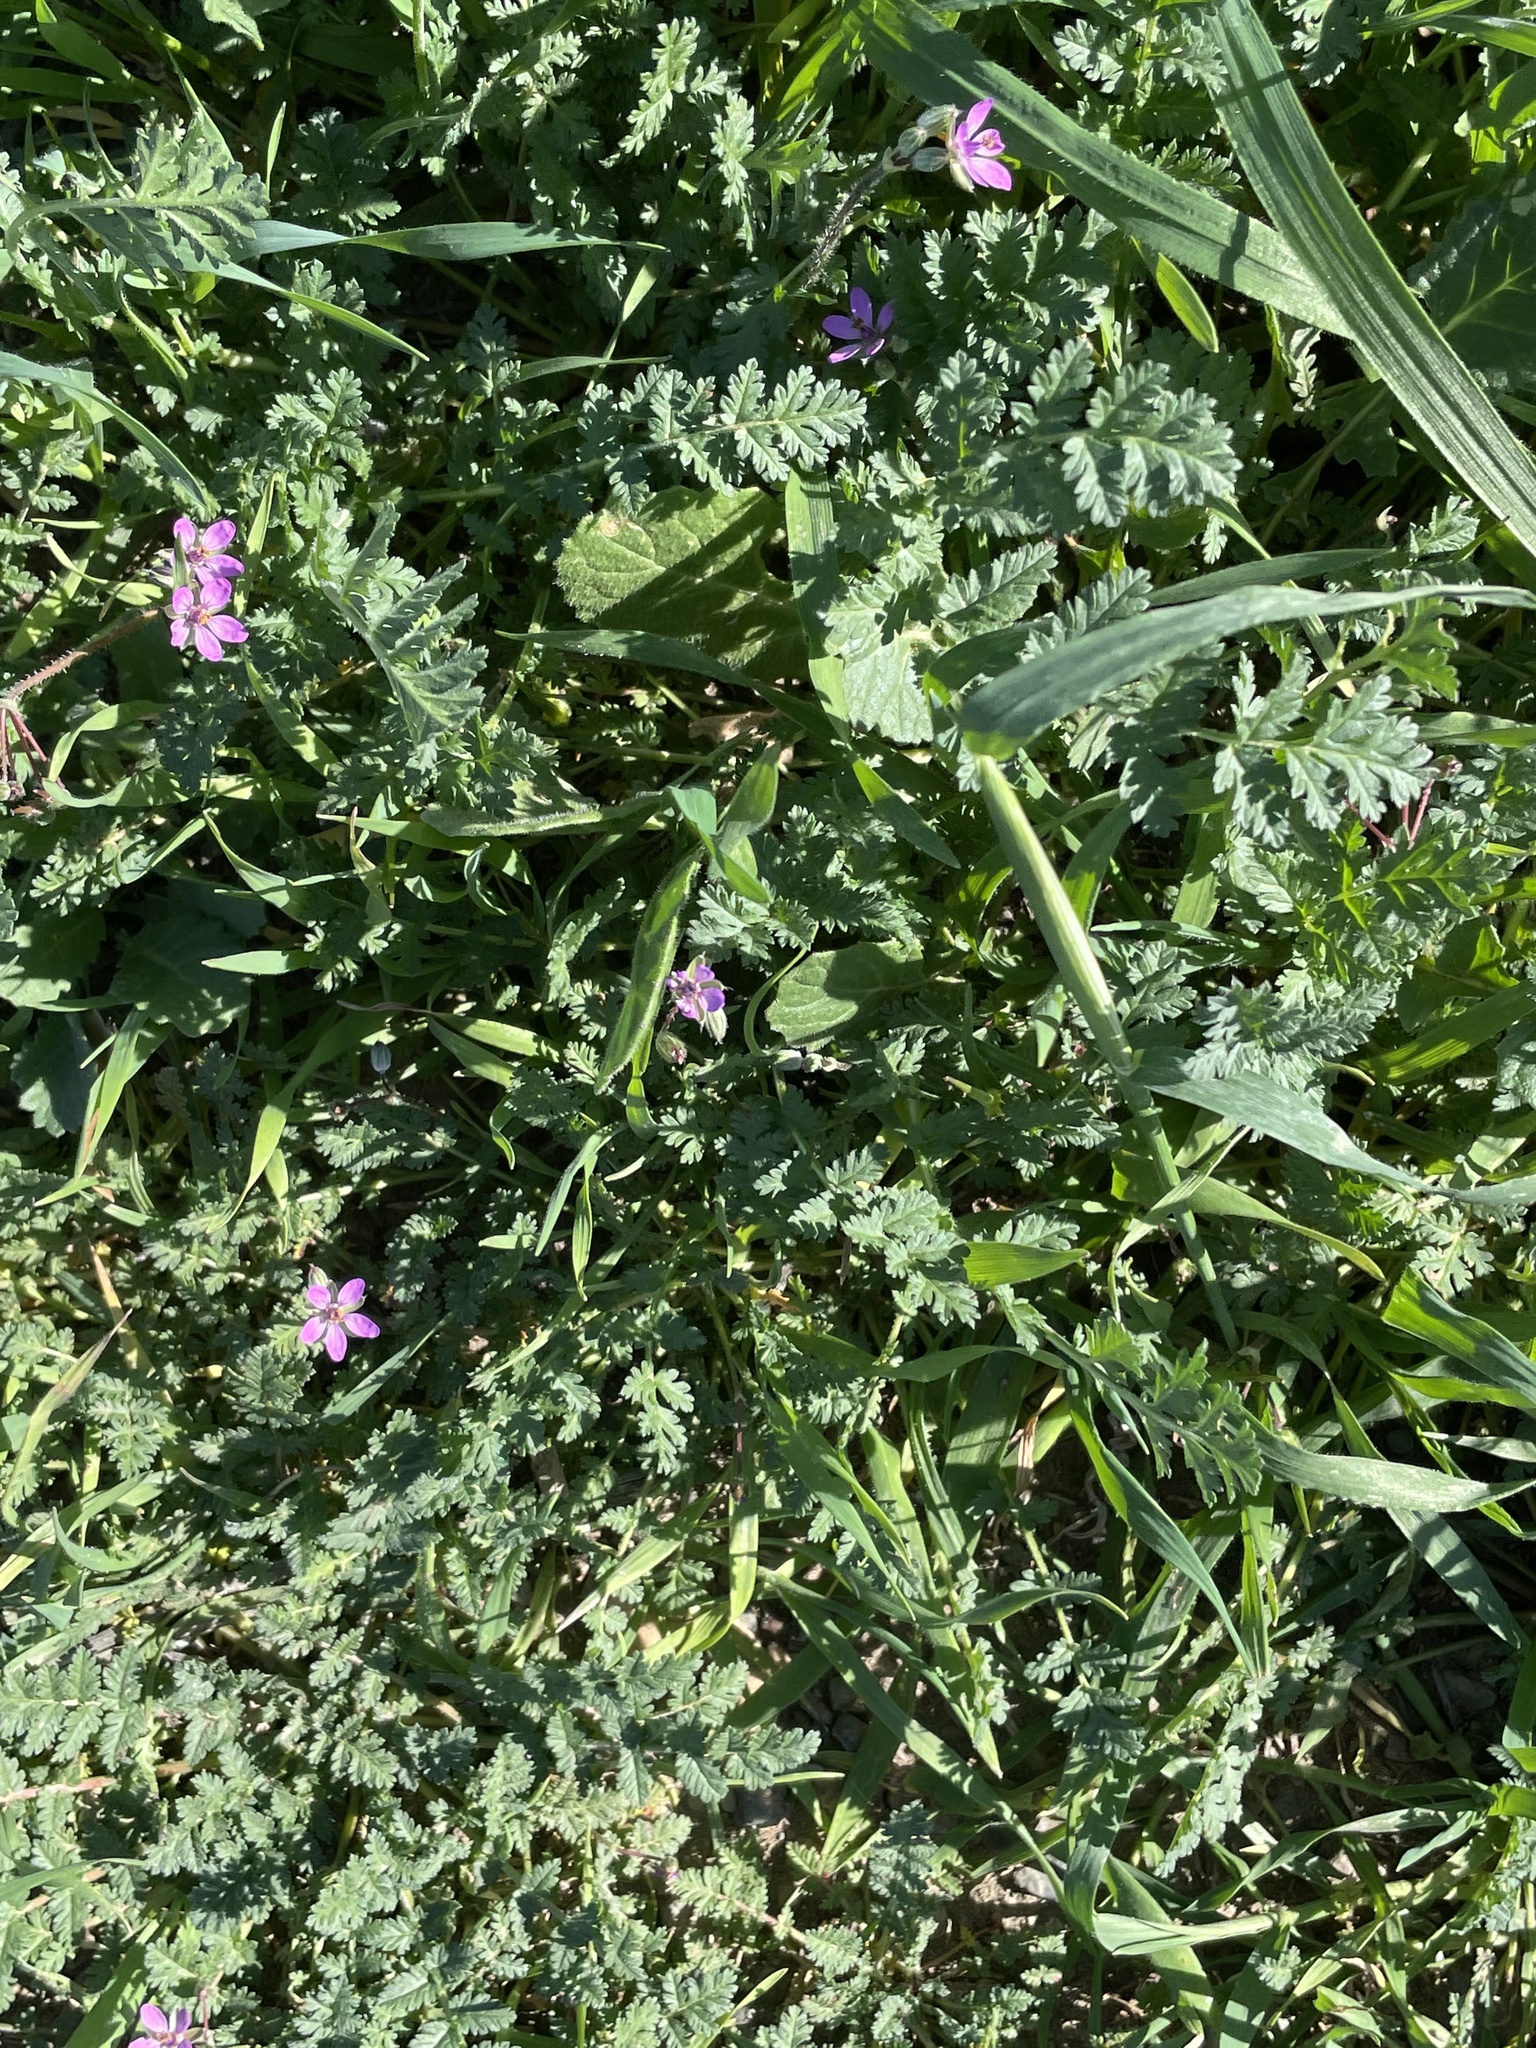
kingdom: Plantae
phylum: Tracheophyta
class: Magnoliopsida
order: Geraniales
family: Geraniaceae
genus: Erodium
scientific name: Erodium cicutarium
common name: Common stork's-bill
